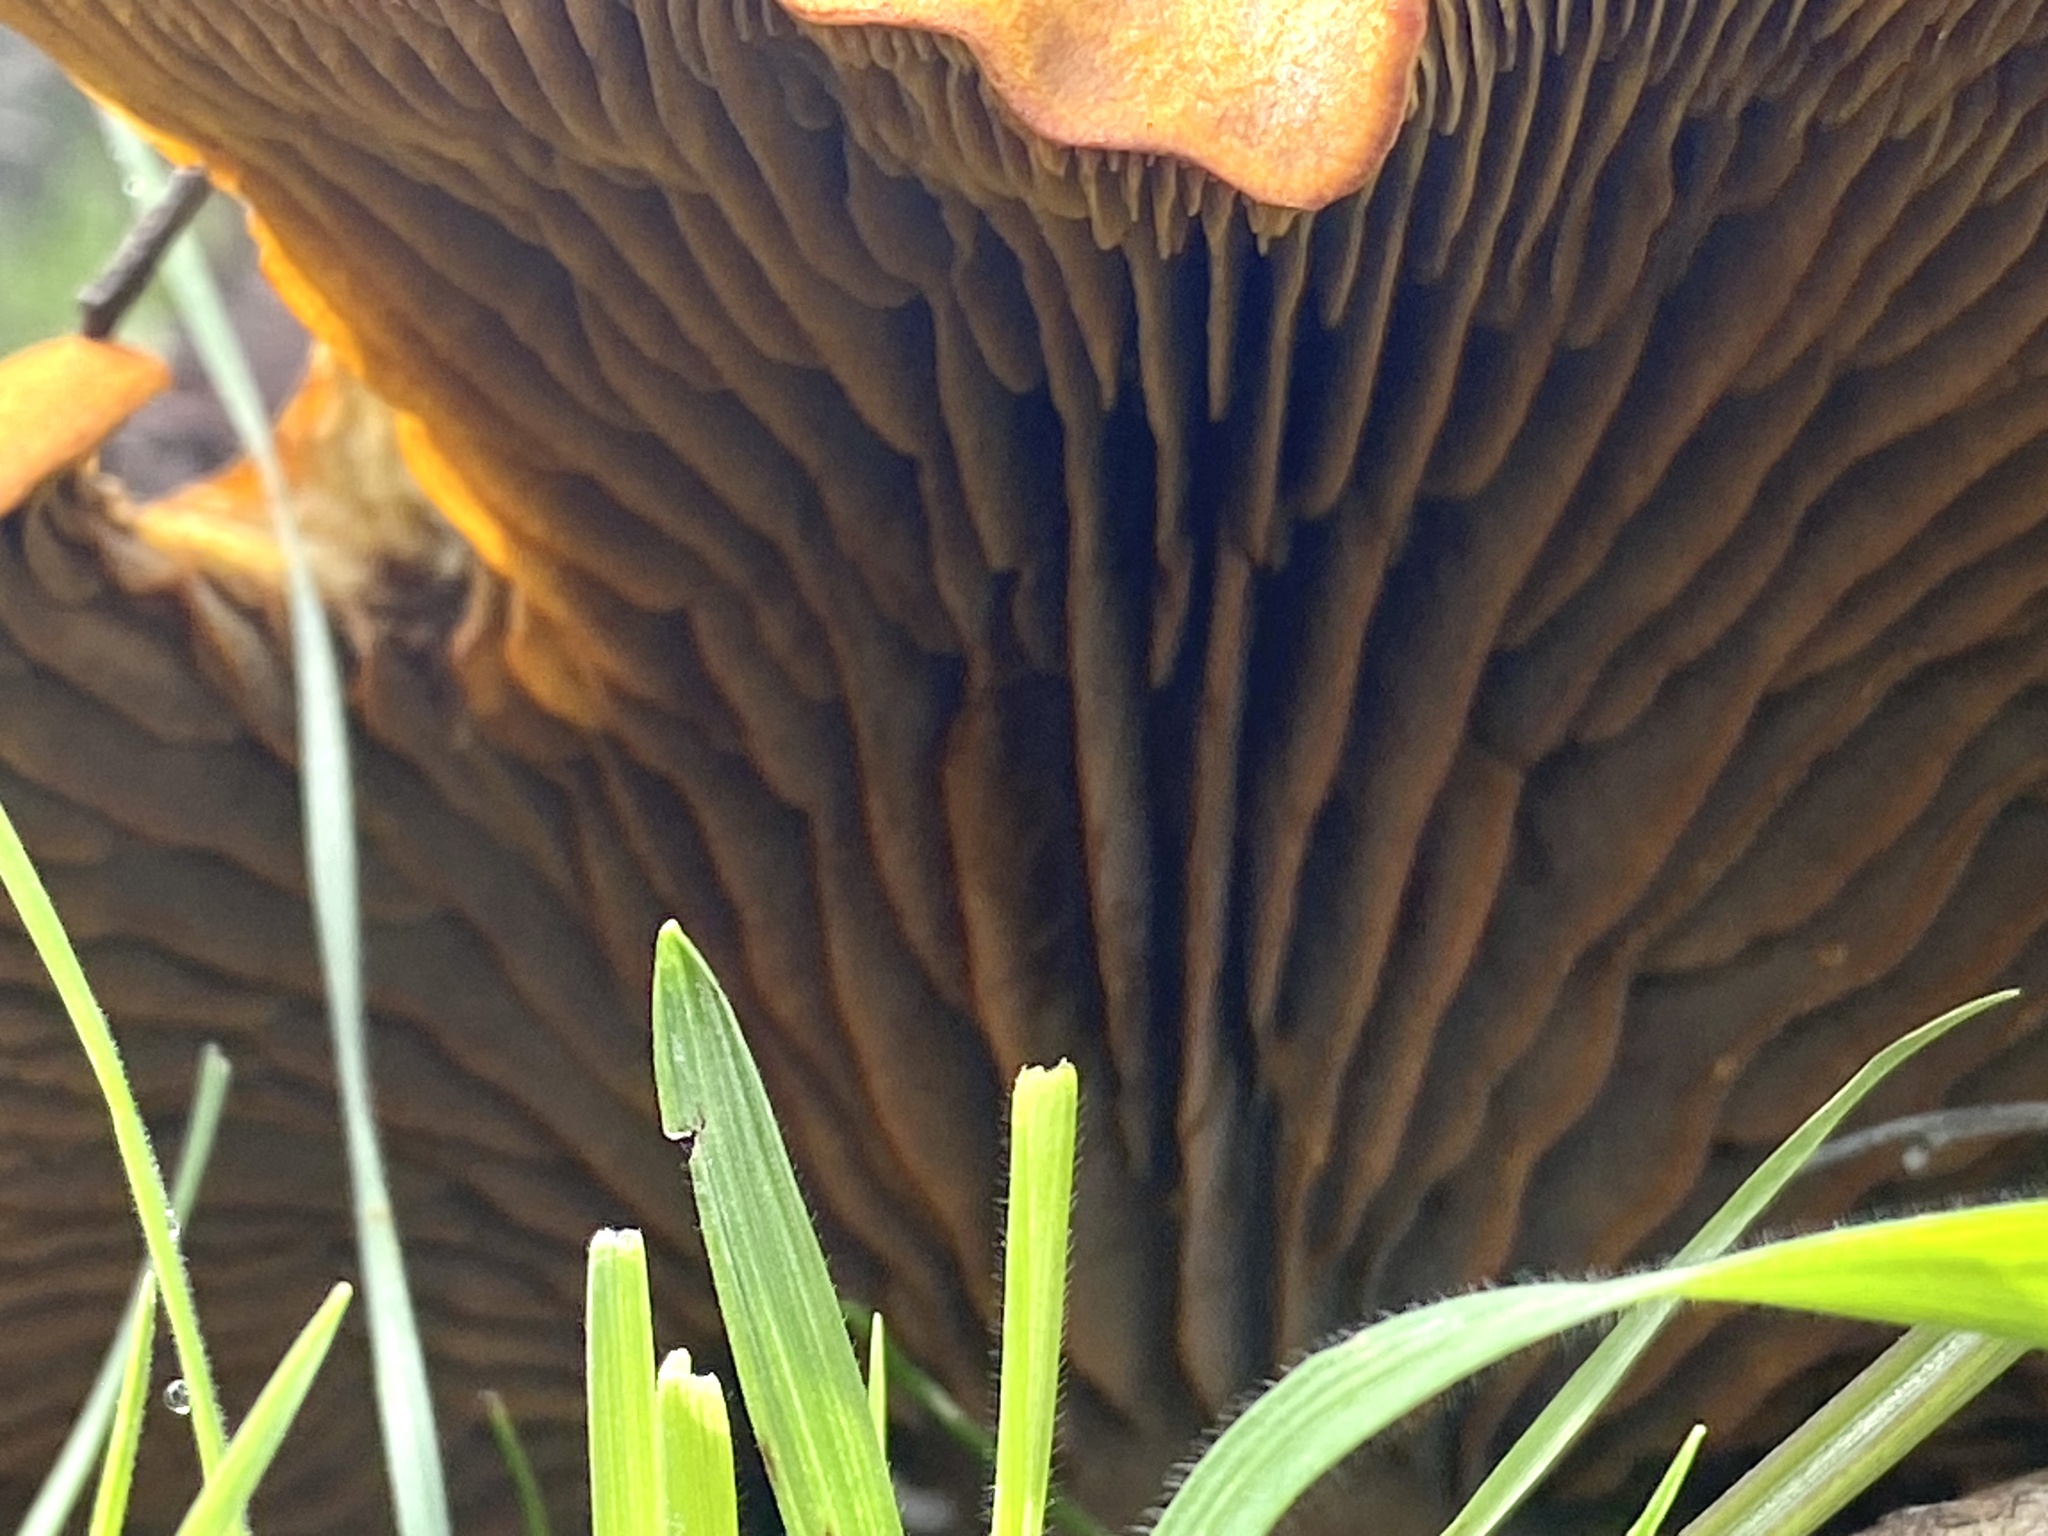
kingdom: Fungi
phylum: Basidiomycota
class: Agaricomycetes
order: Agaricales
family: Omphalotaceae
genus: Omphalotus
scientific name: Omphalotus olivascens
